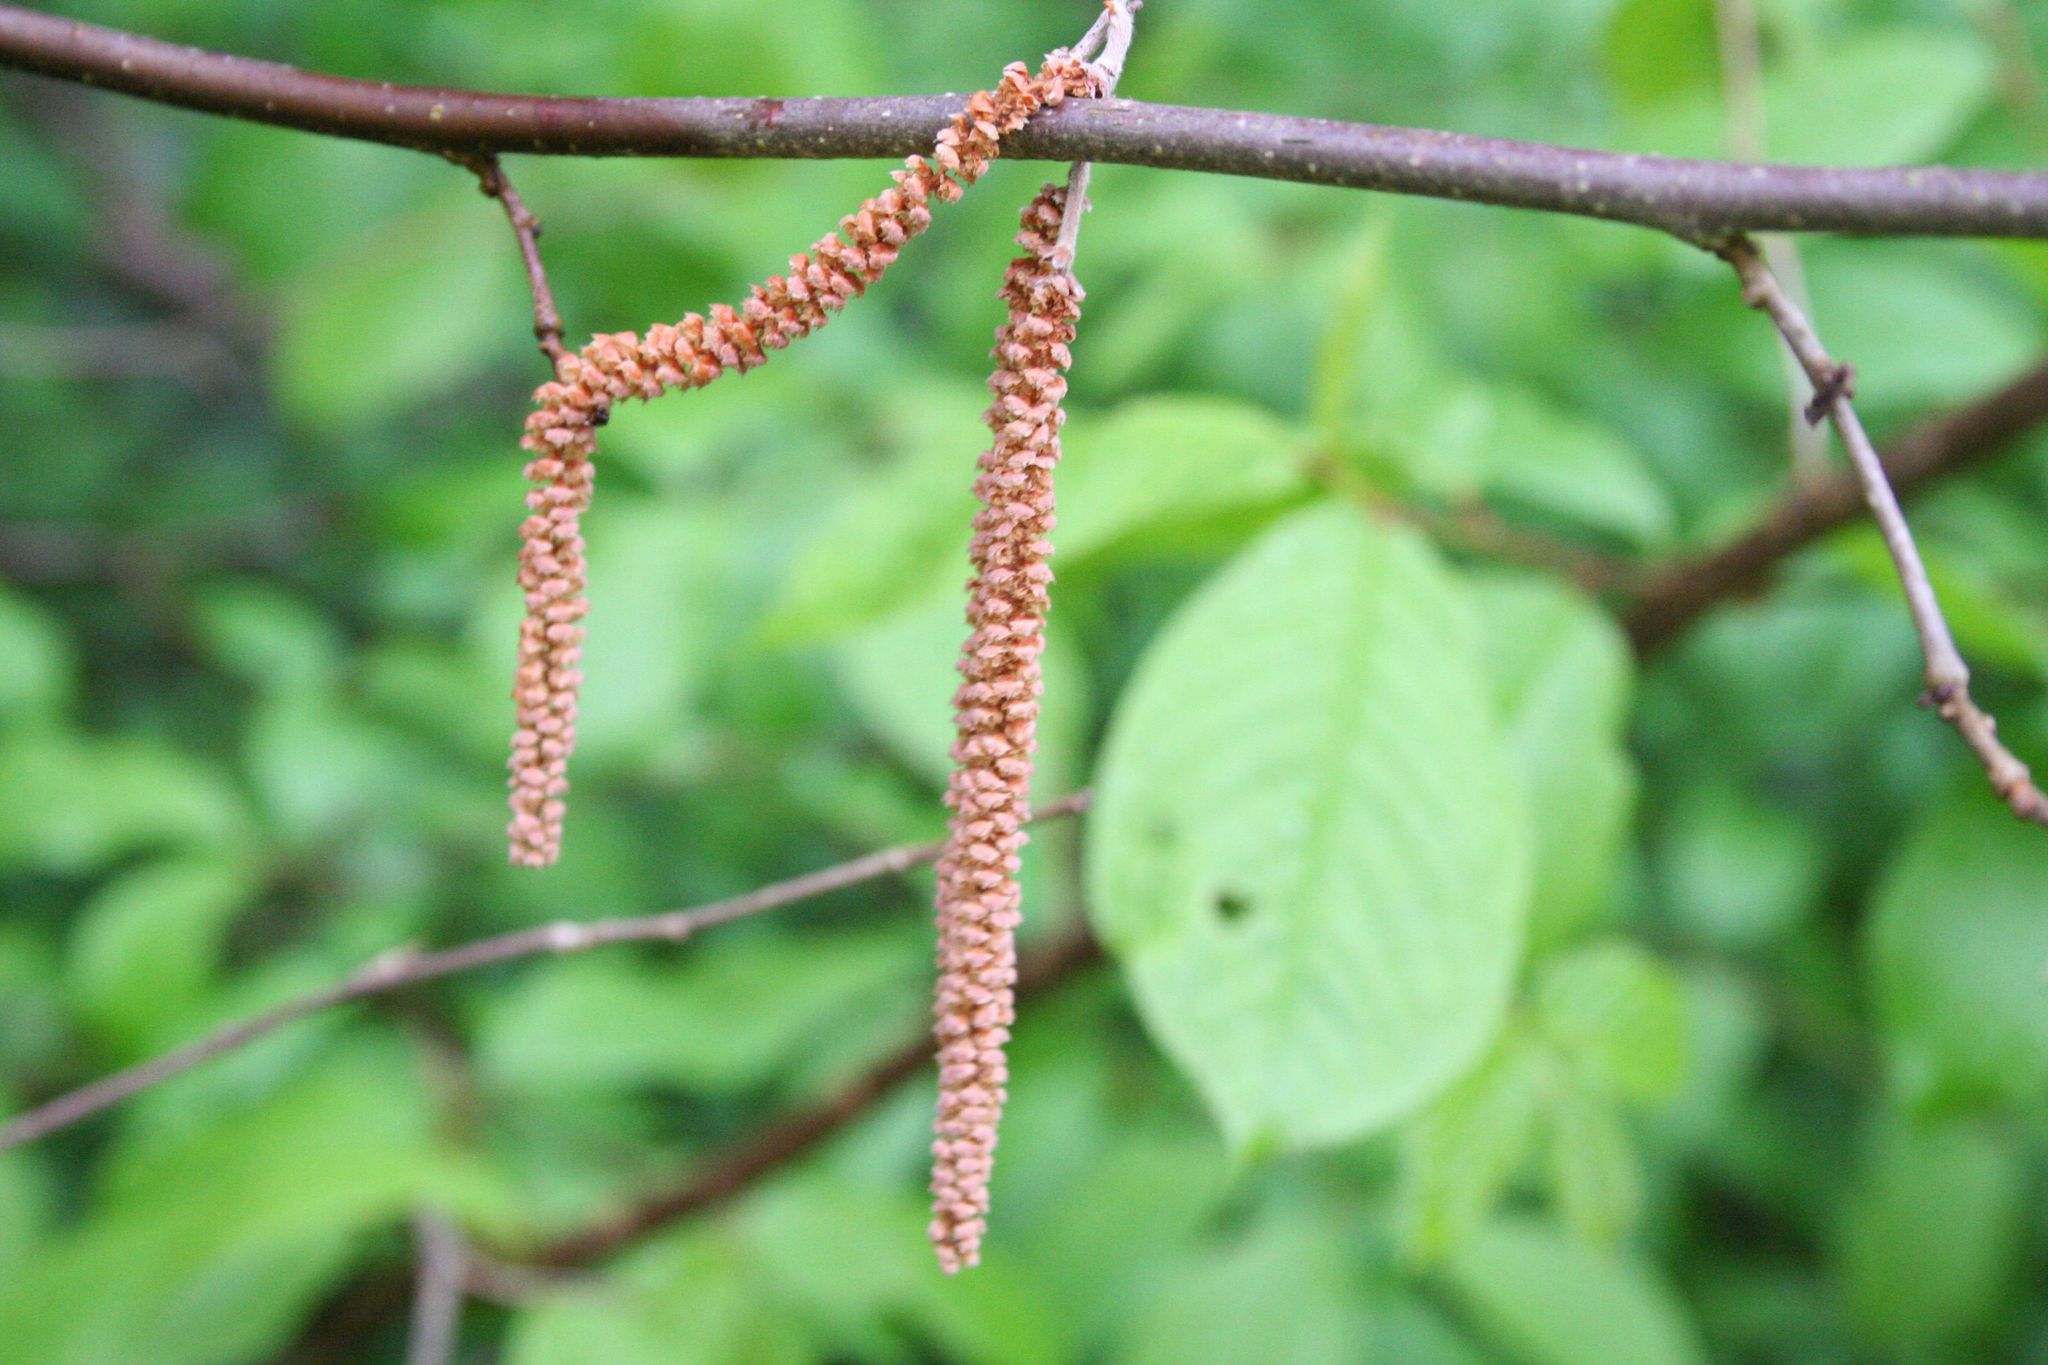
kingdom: Plantae
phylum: Tracheophyta
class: Magnoliopsida
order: Fagales
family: Betulaceae
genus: Corylus
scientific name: Corylus avellana
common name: European hazel
